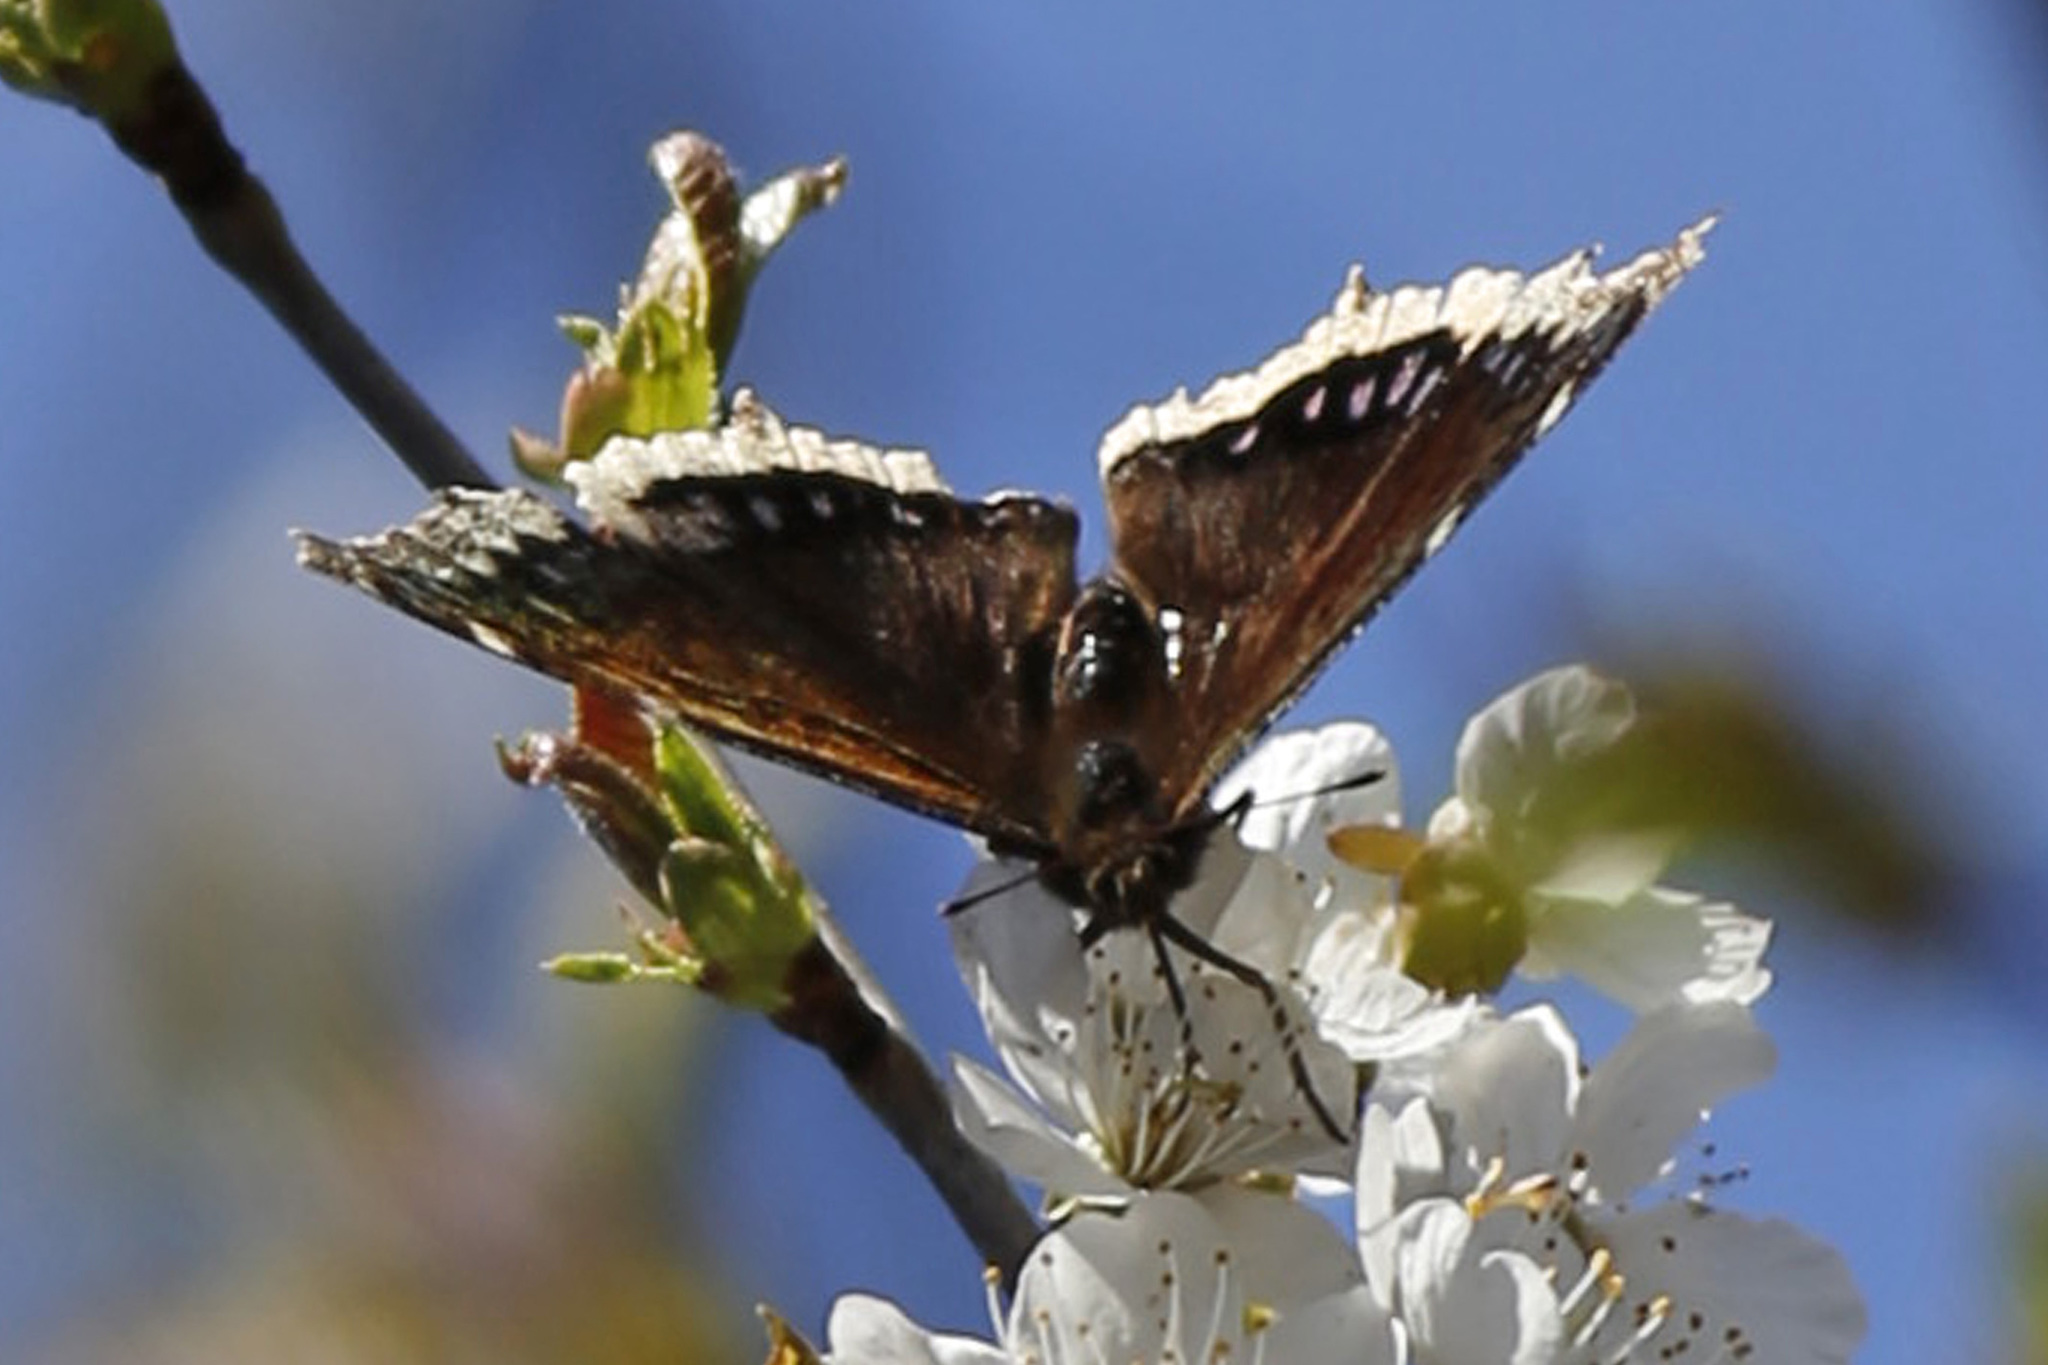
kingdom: Animalia
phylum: Arthropoda
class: Insecta
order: Lepidoptera
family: Nymphalidae
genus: Nymphalis
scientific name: Nymphalis antiopa
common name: Camberwell beauty
